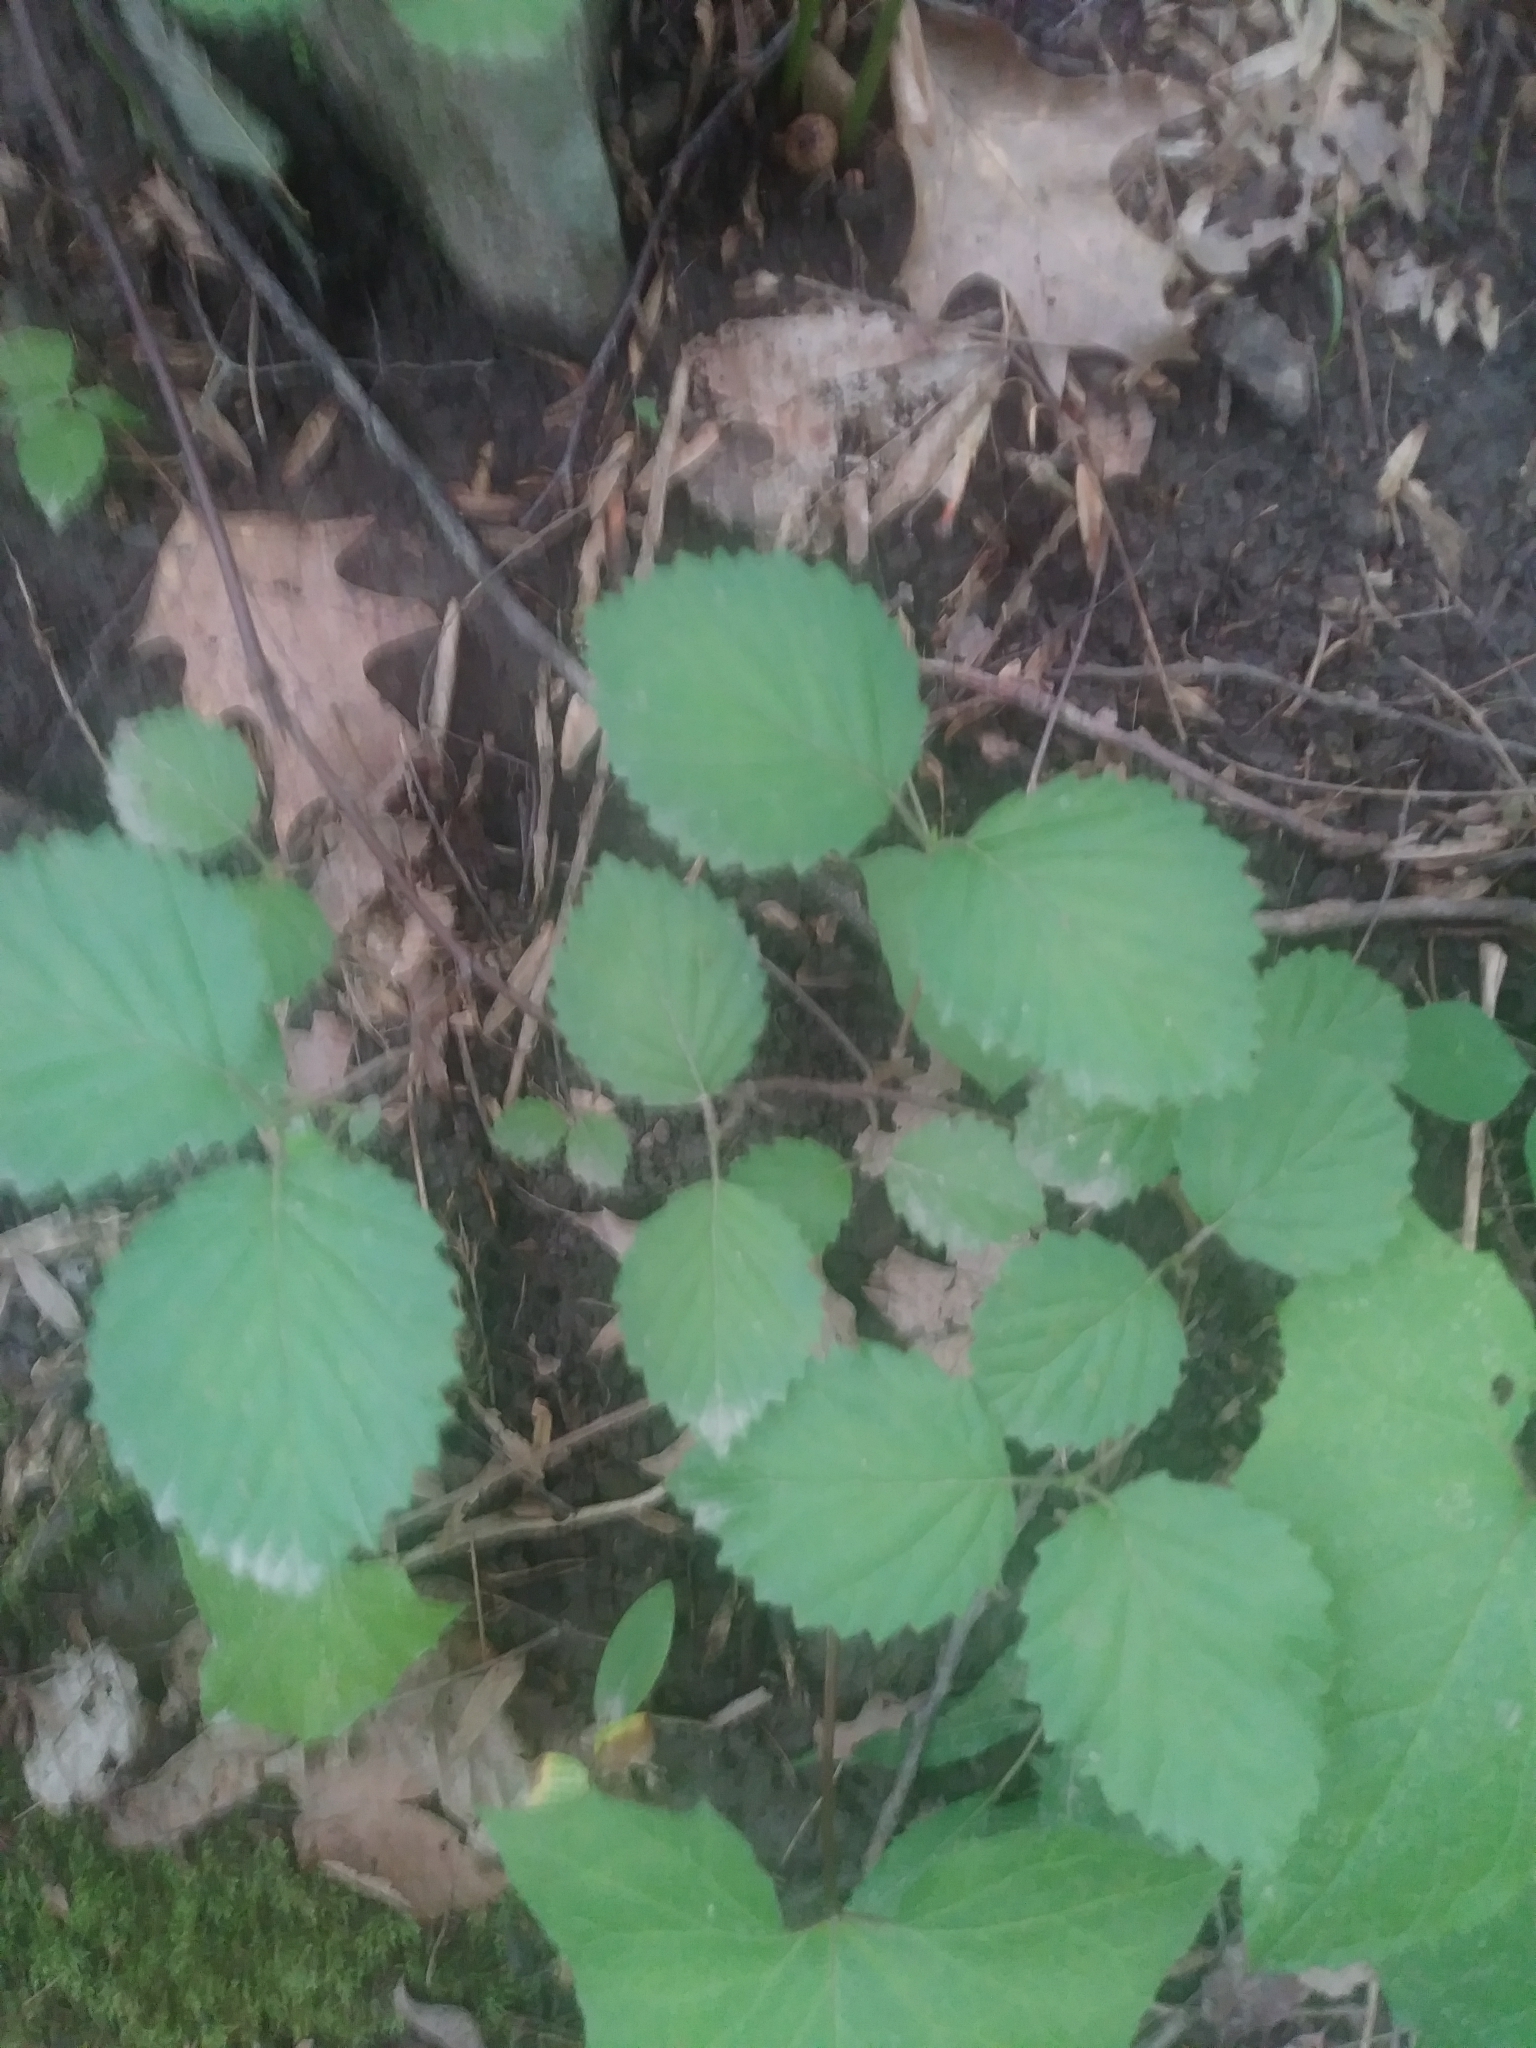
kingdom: Plantae
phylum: Tracheophyta
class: Magnoliopsida
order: Dipsacales
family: Viburnaceae
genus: Viburnum
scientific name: Viburnum dentatum
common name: Arrow-wood
